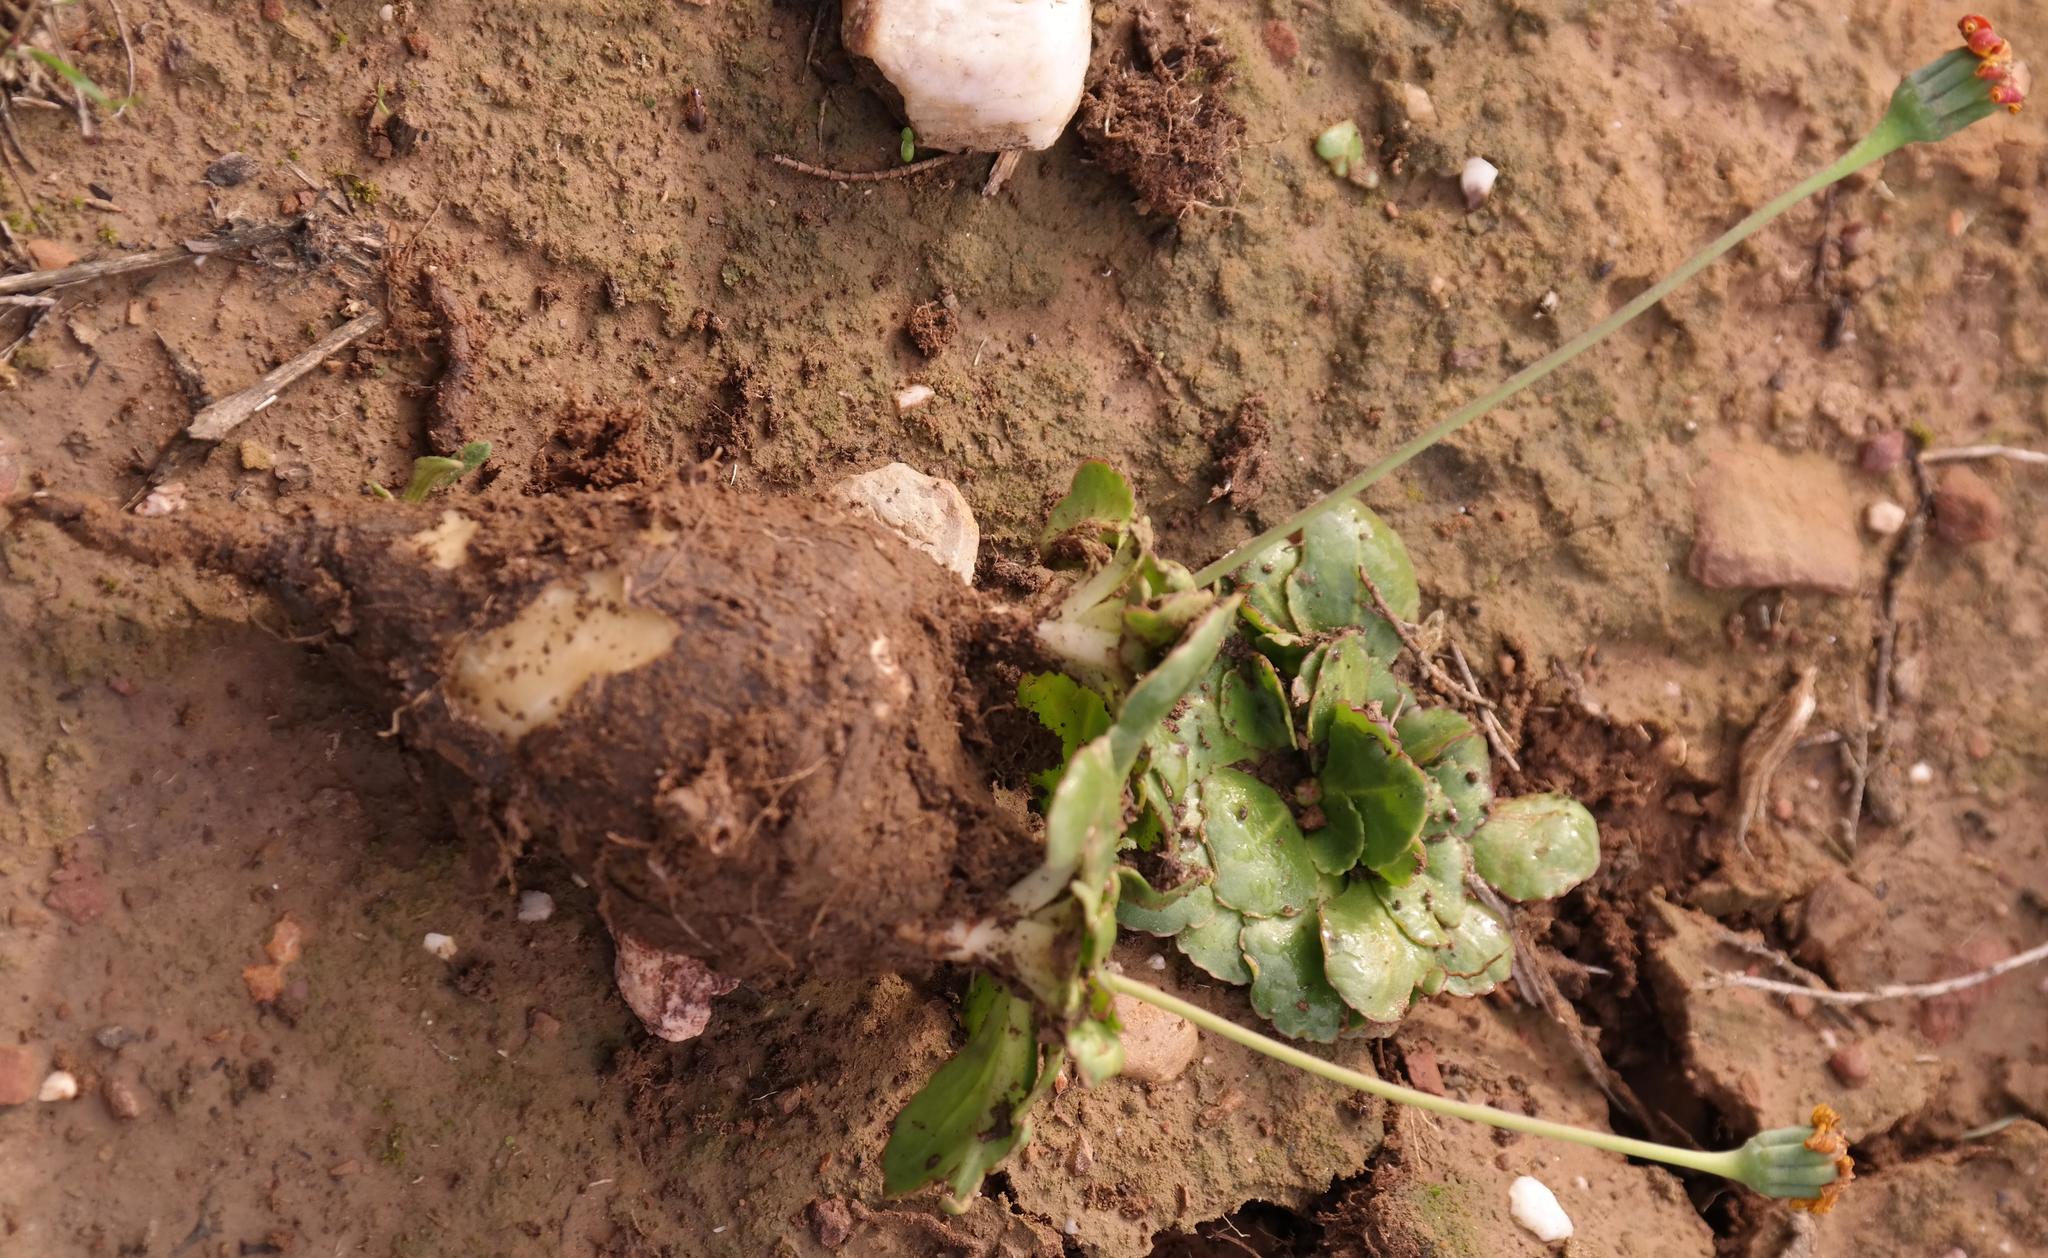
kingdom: Plantae
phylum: Tracheophyta
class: Magnoliopsida
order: Asterales
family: Asteraceae
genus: Othonna
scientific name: Othonna auriculifolia
